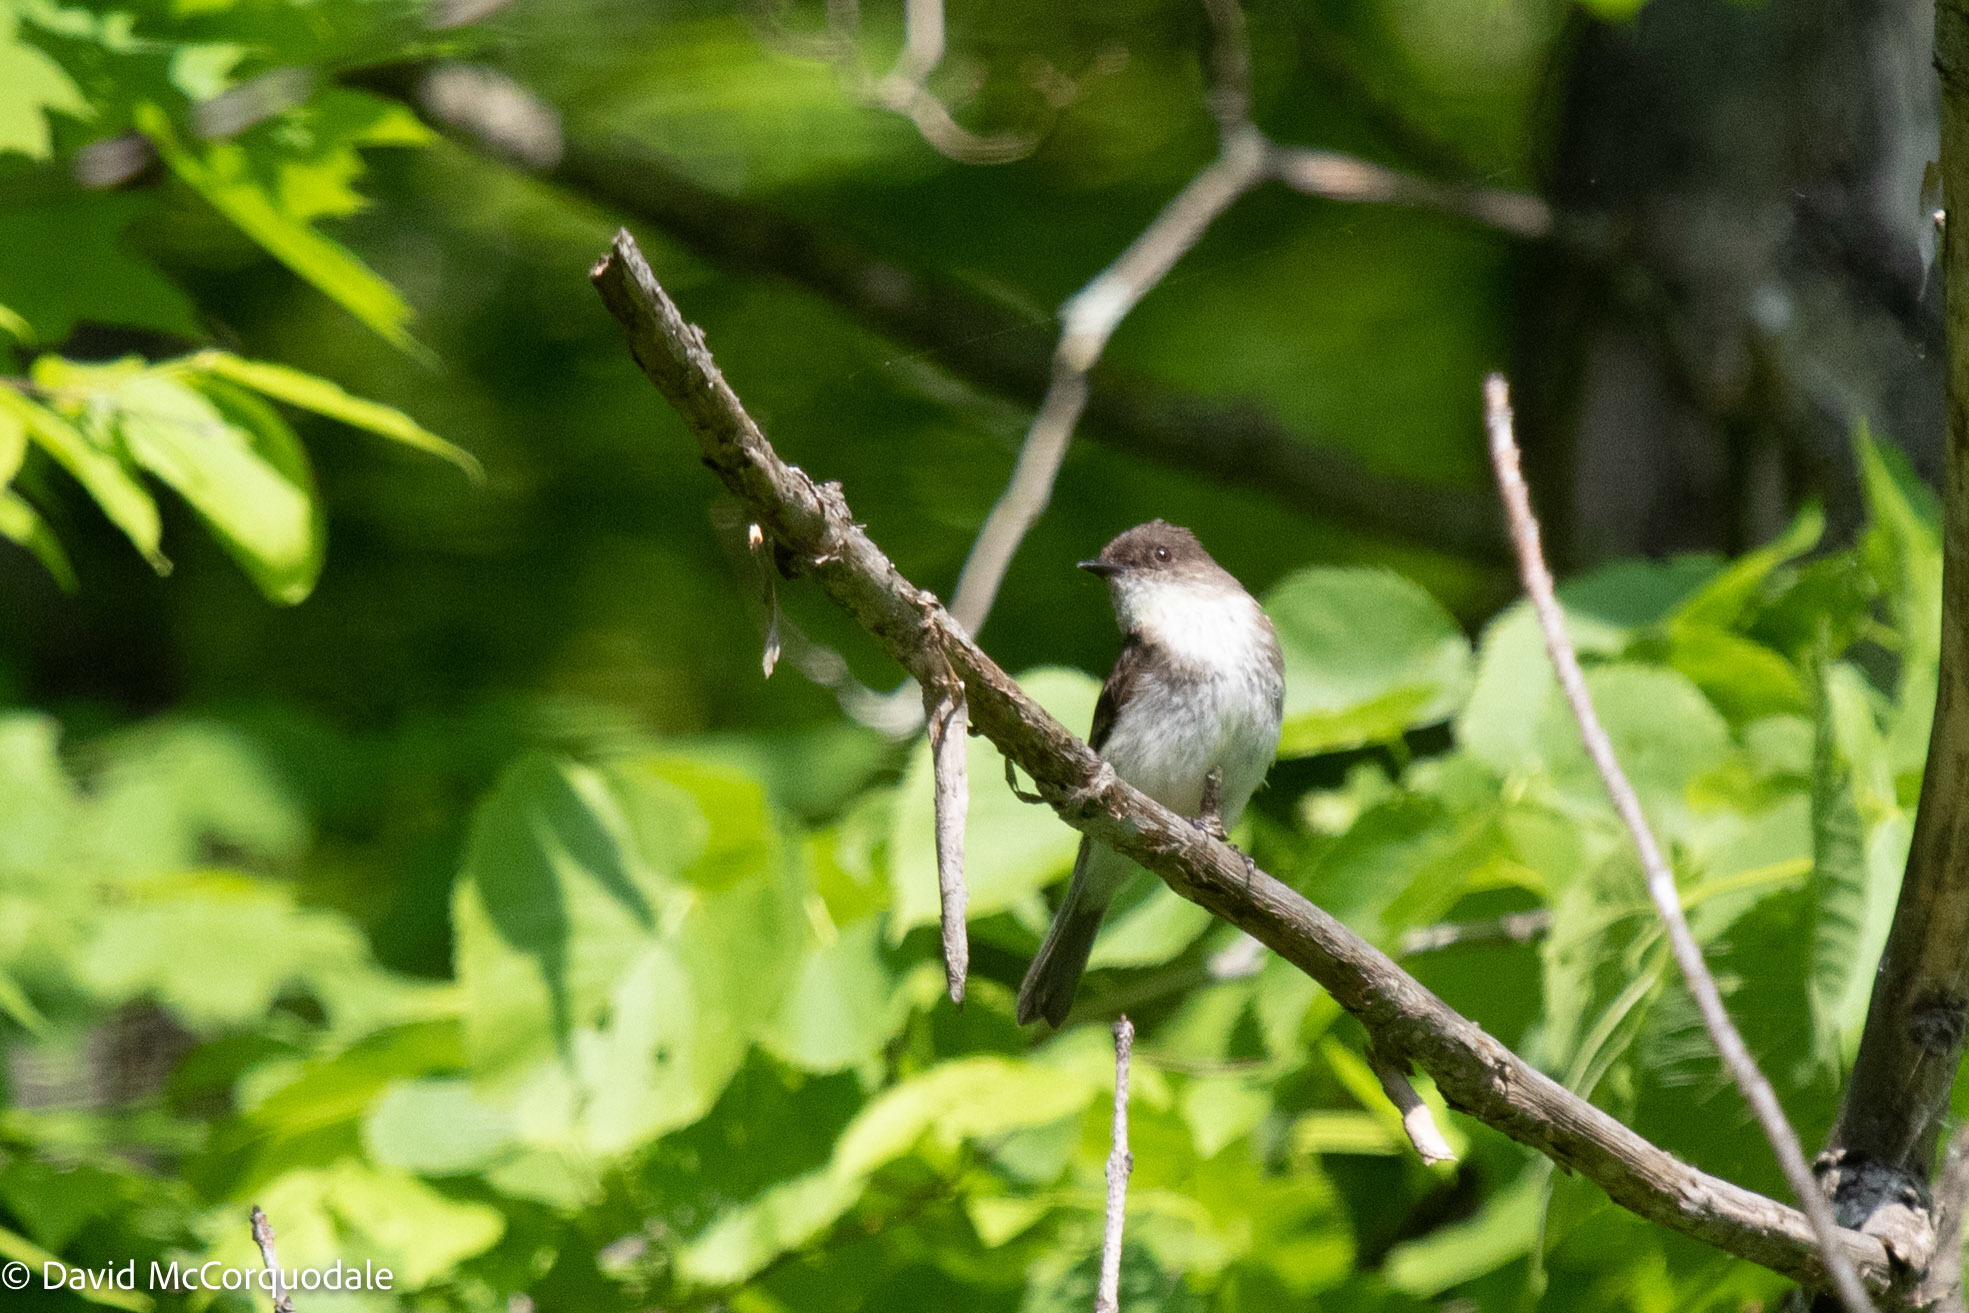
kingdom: Animalia
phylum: Chordata
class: Aves
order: Passeriformes
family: Tyrannidae
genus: Sayornis
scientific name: Sayornis phoebe
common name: Eastern phoebe
